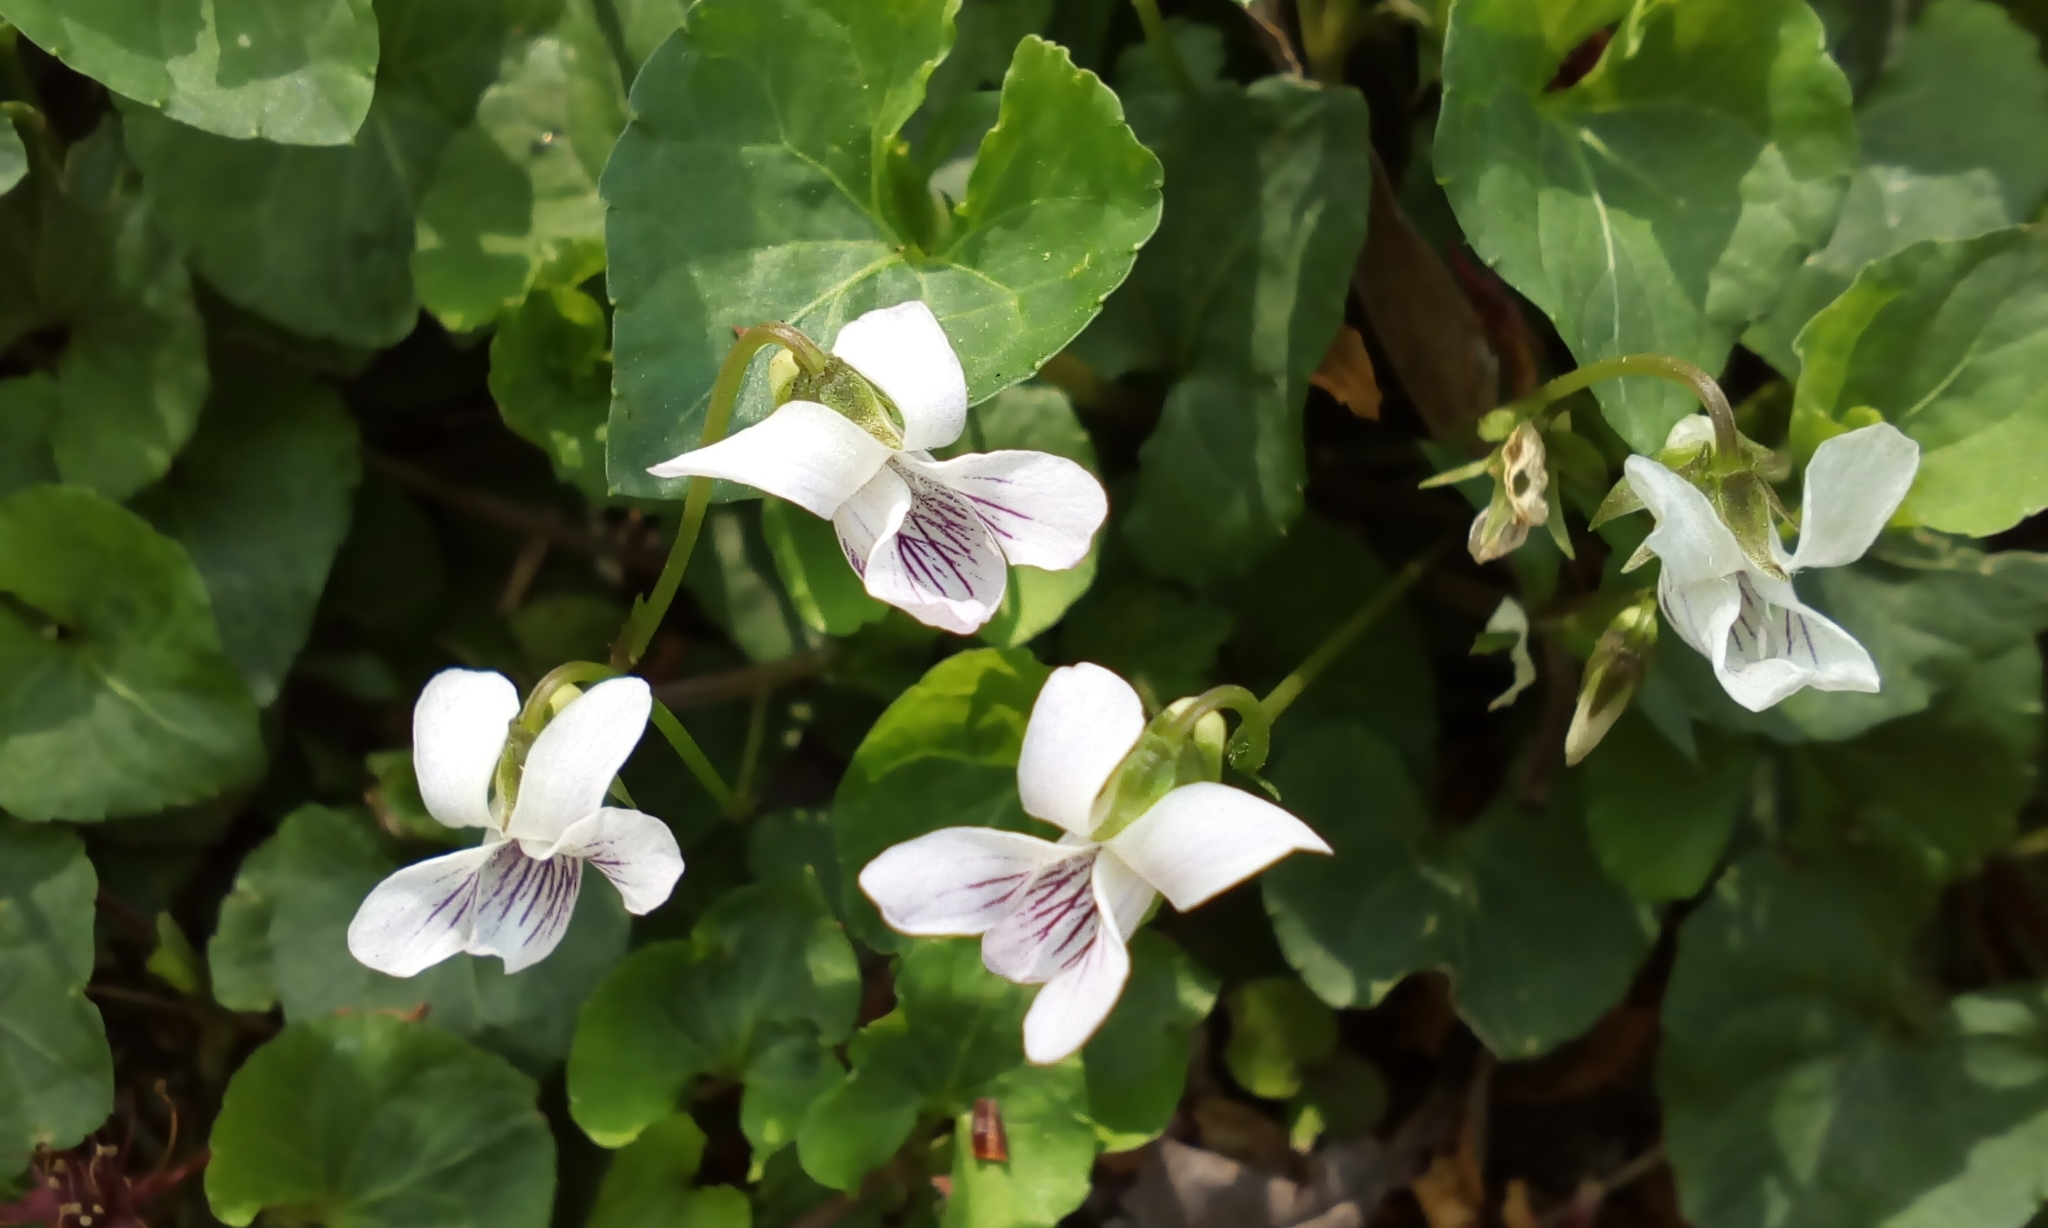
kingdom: Plantae
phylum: Tracheophyta
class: Magnoliopsida
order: Malpighiales
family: Violaceae
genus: Viola
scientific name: Viola
